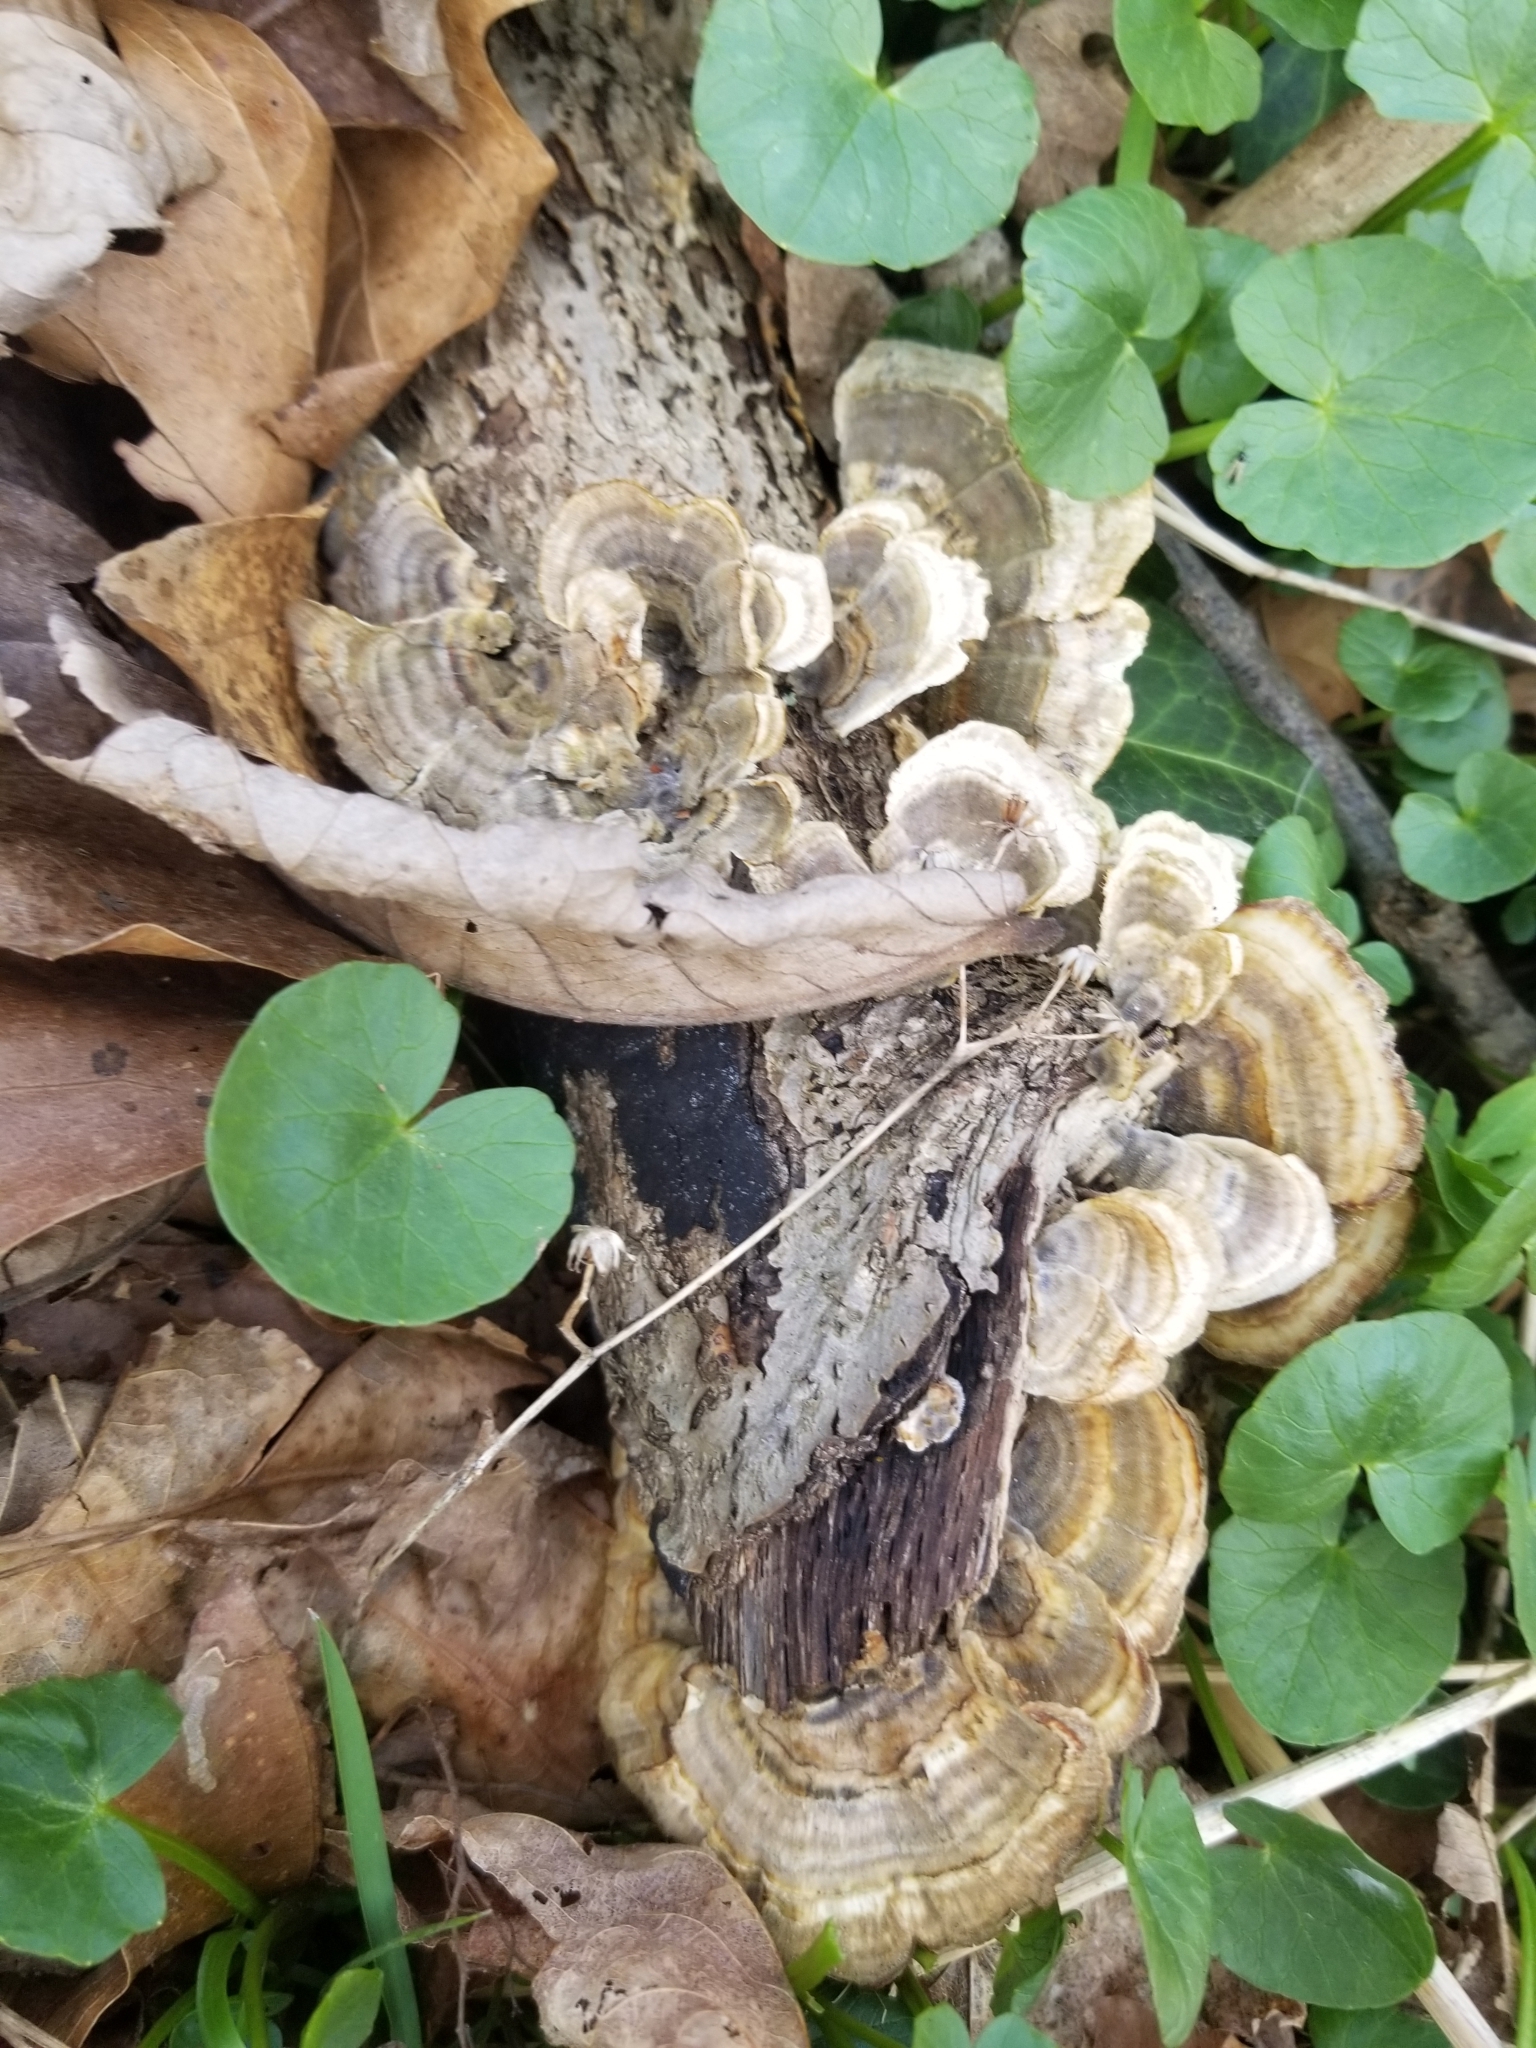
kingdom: Fungi
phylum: Basidiomycota
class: Agaricomycetes
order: Polyporales
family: Polyporaceae
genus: Trametes
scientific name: Trametes versicolor
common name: Turkeytail
